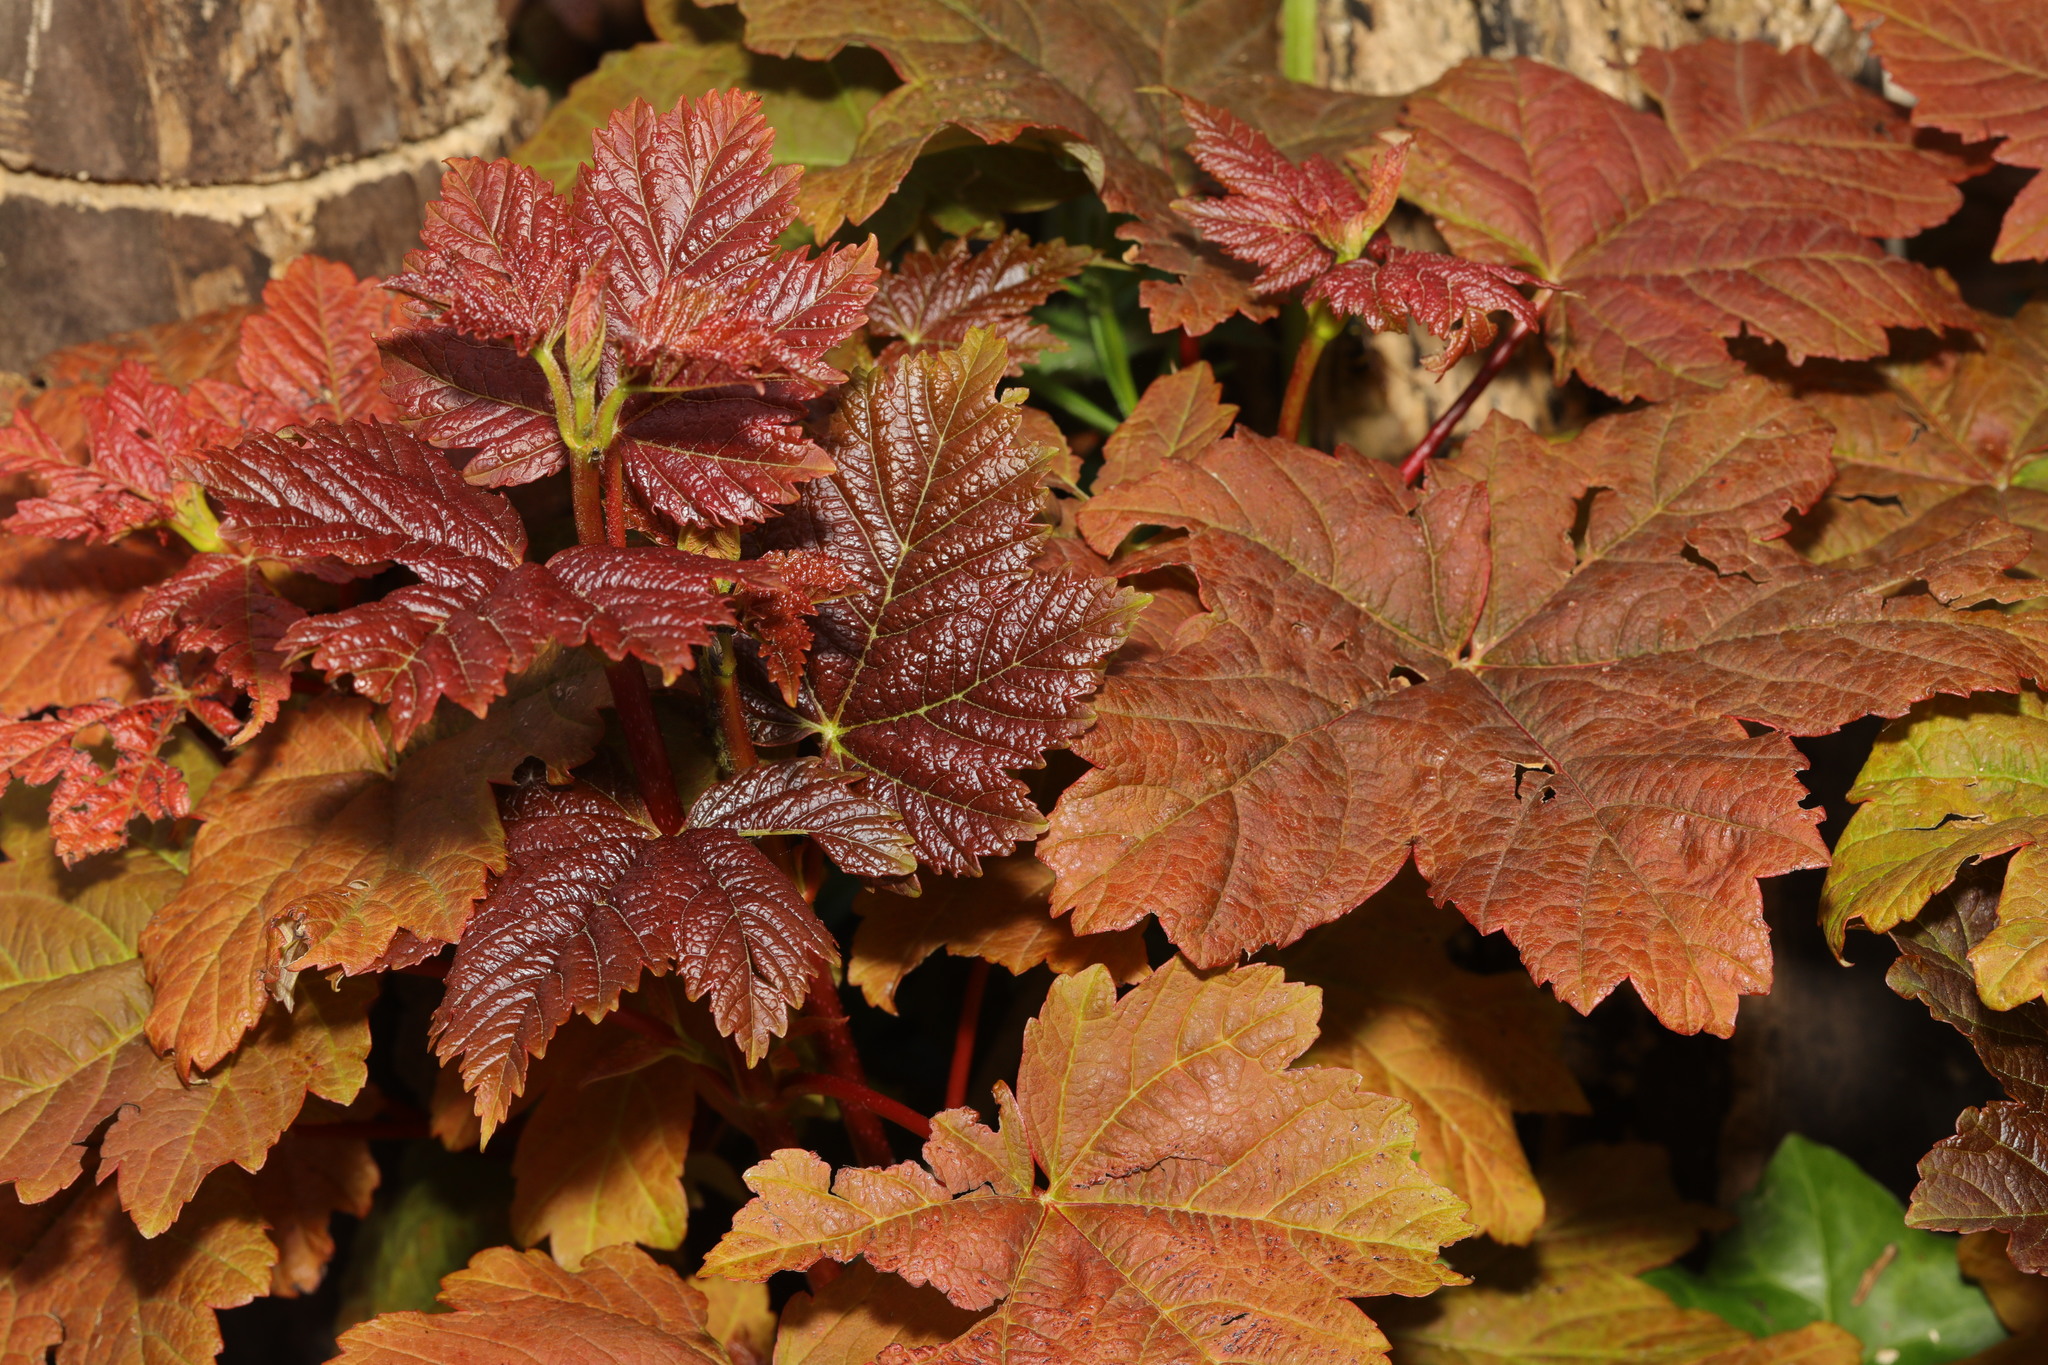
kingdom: Plantae
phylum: Tracheophyta
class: Magnoliopsida
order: Sapindales
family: Sapindaceae
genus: Acer
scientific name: Acer pseudoplatanus
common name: Sycamore
